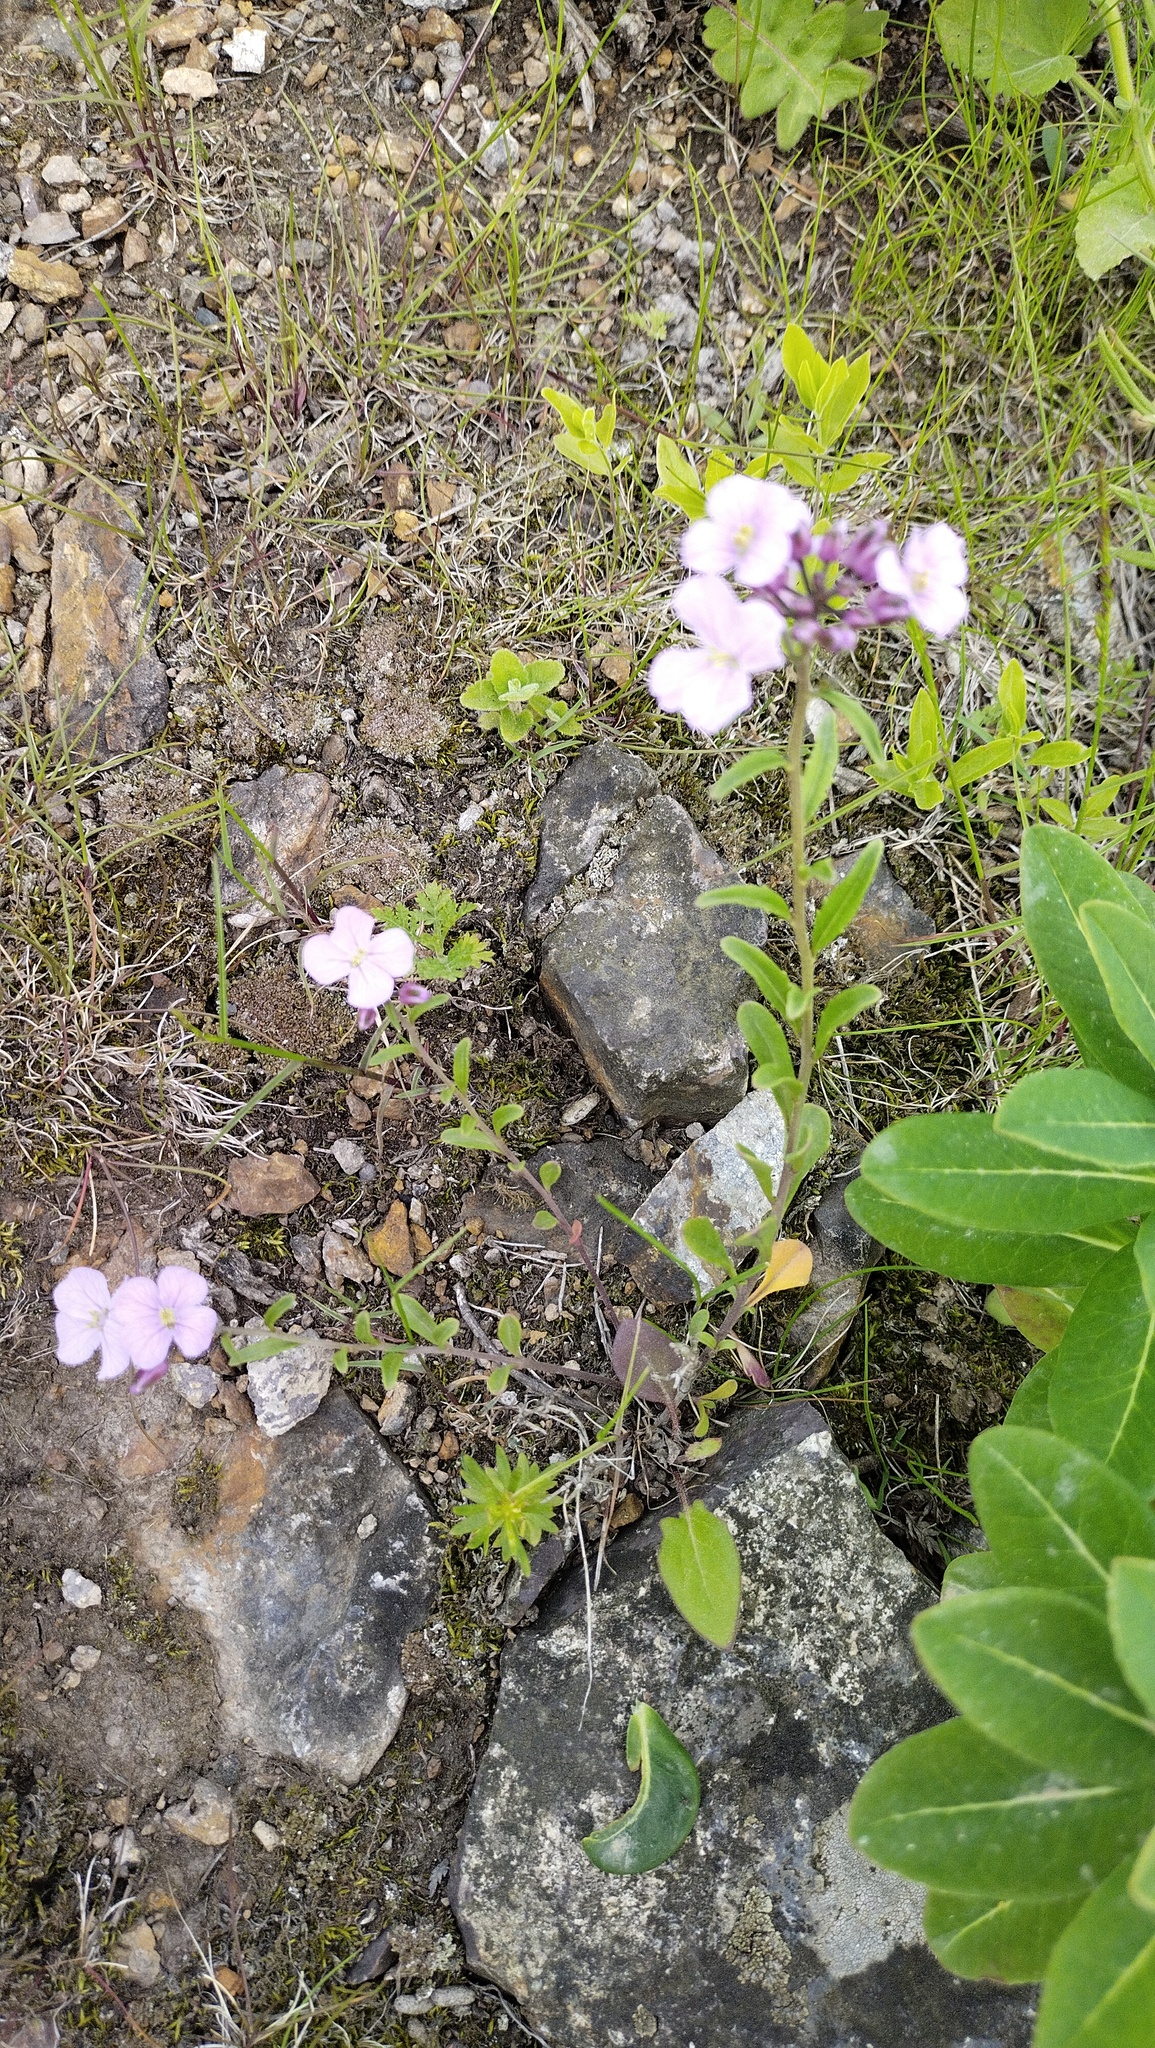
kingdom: Plantae
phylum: Tracheophyta
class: Magnoliopsida
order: Brassicales
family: Brassicaceae
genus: Dontostemon
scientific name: Dontostemon dentatus
